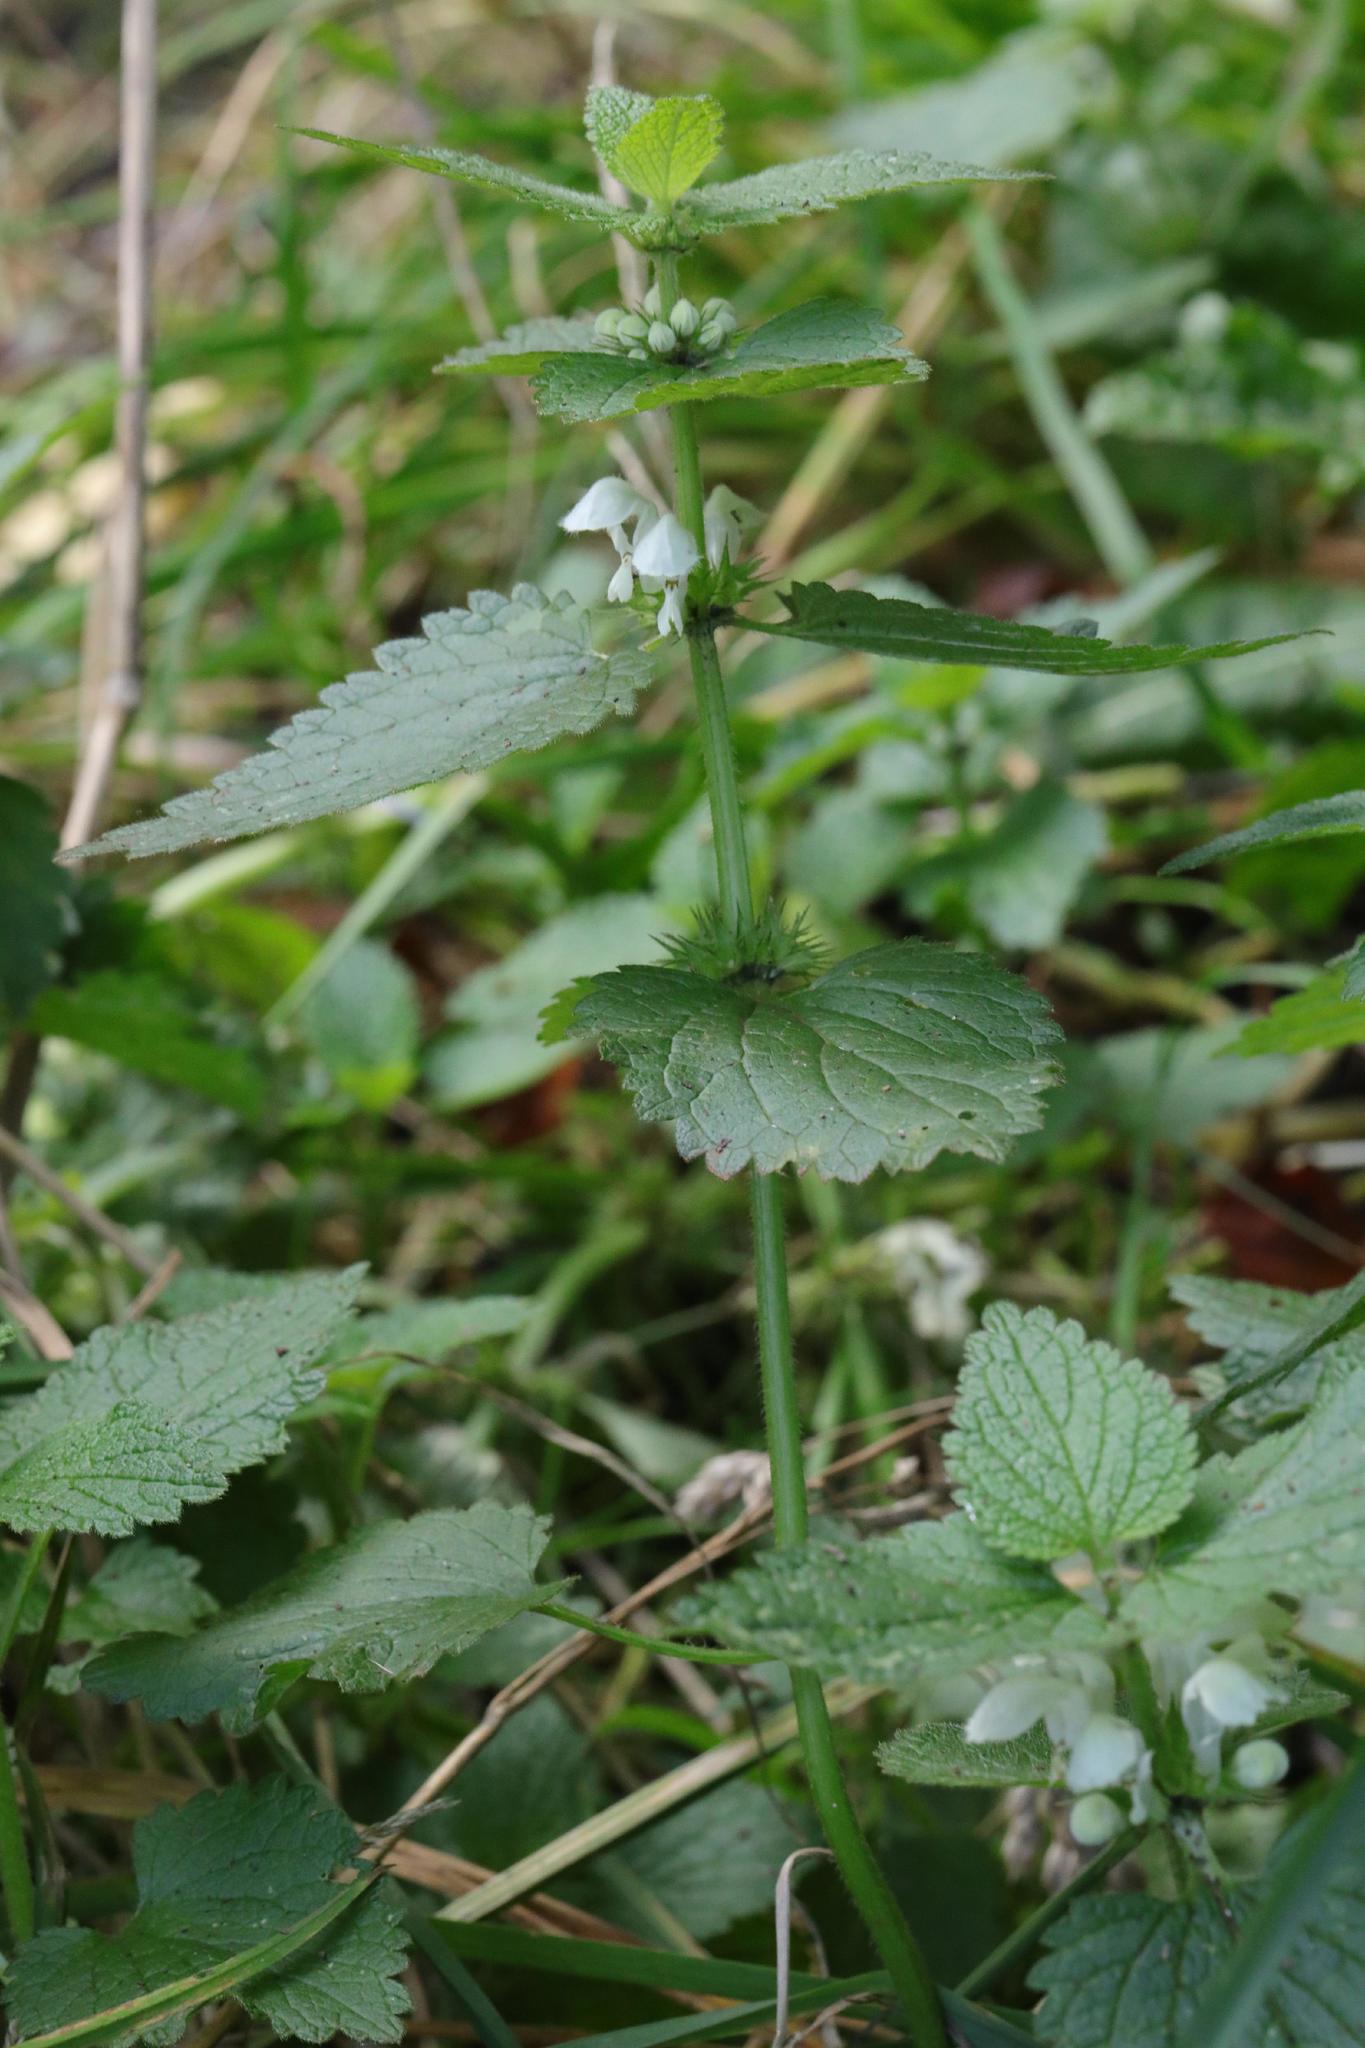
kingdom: Plantae
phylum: Tracheophyta
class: Magnoliopsida
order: Lamiales
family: Lamiaceae
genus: Lamium
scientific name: Lamium album
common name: White dead-nettle
